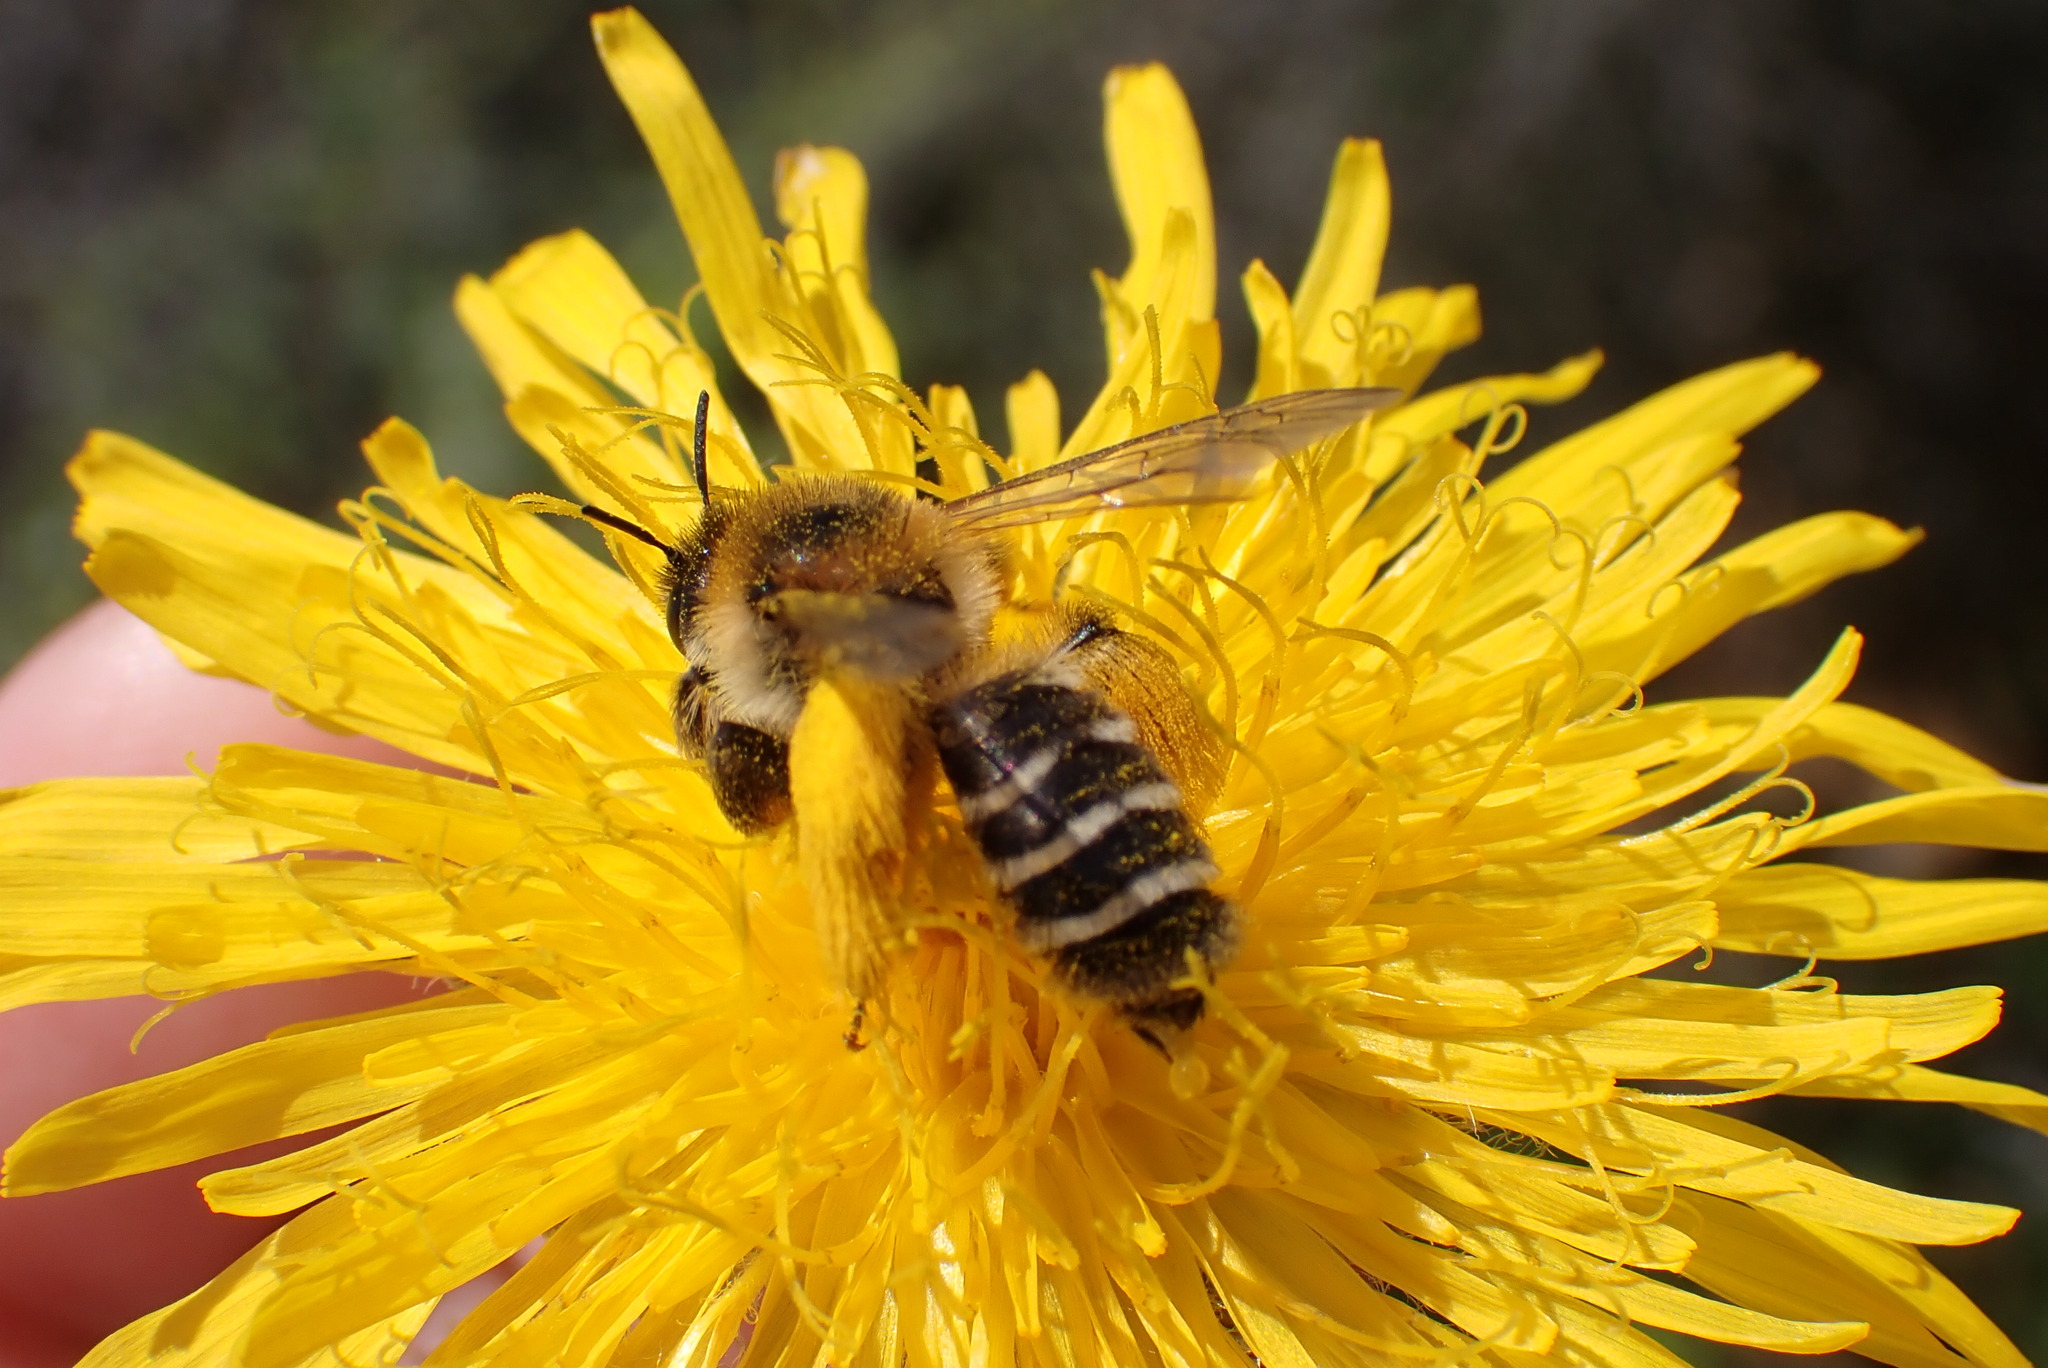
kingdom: Animalia
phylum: Arthropoda
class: Insecta
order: Hymenoptera
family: Melittidae
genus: Dasypoda
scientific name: Dasypoda hirtipes
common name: Pantaloon bee
